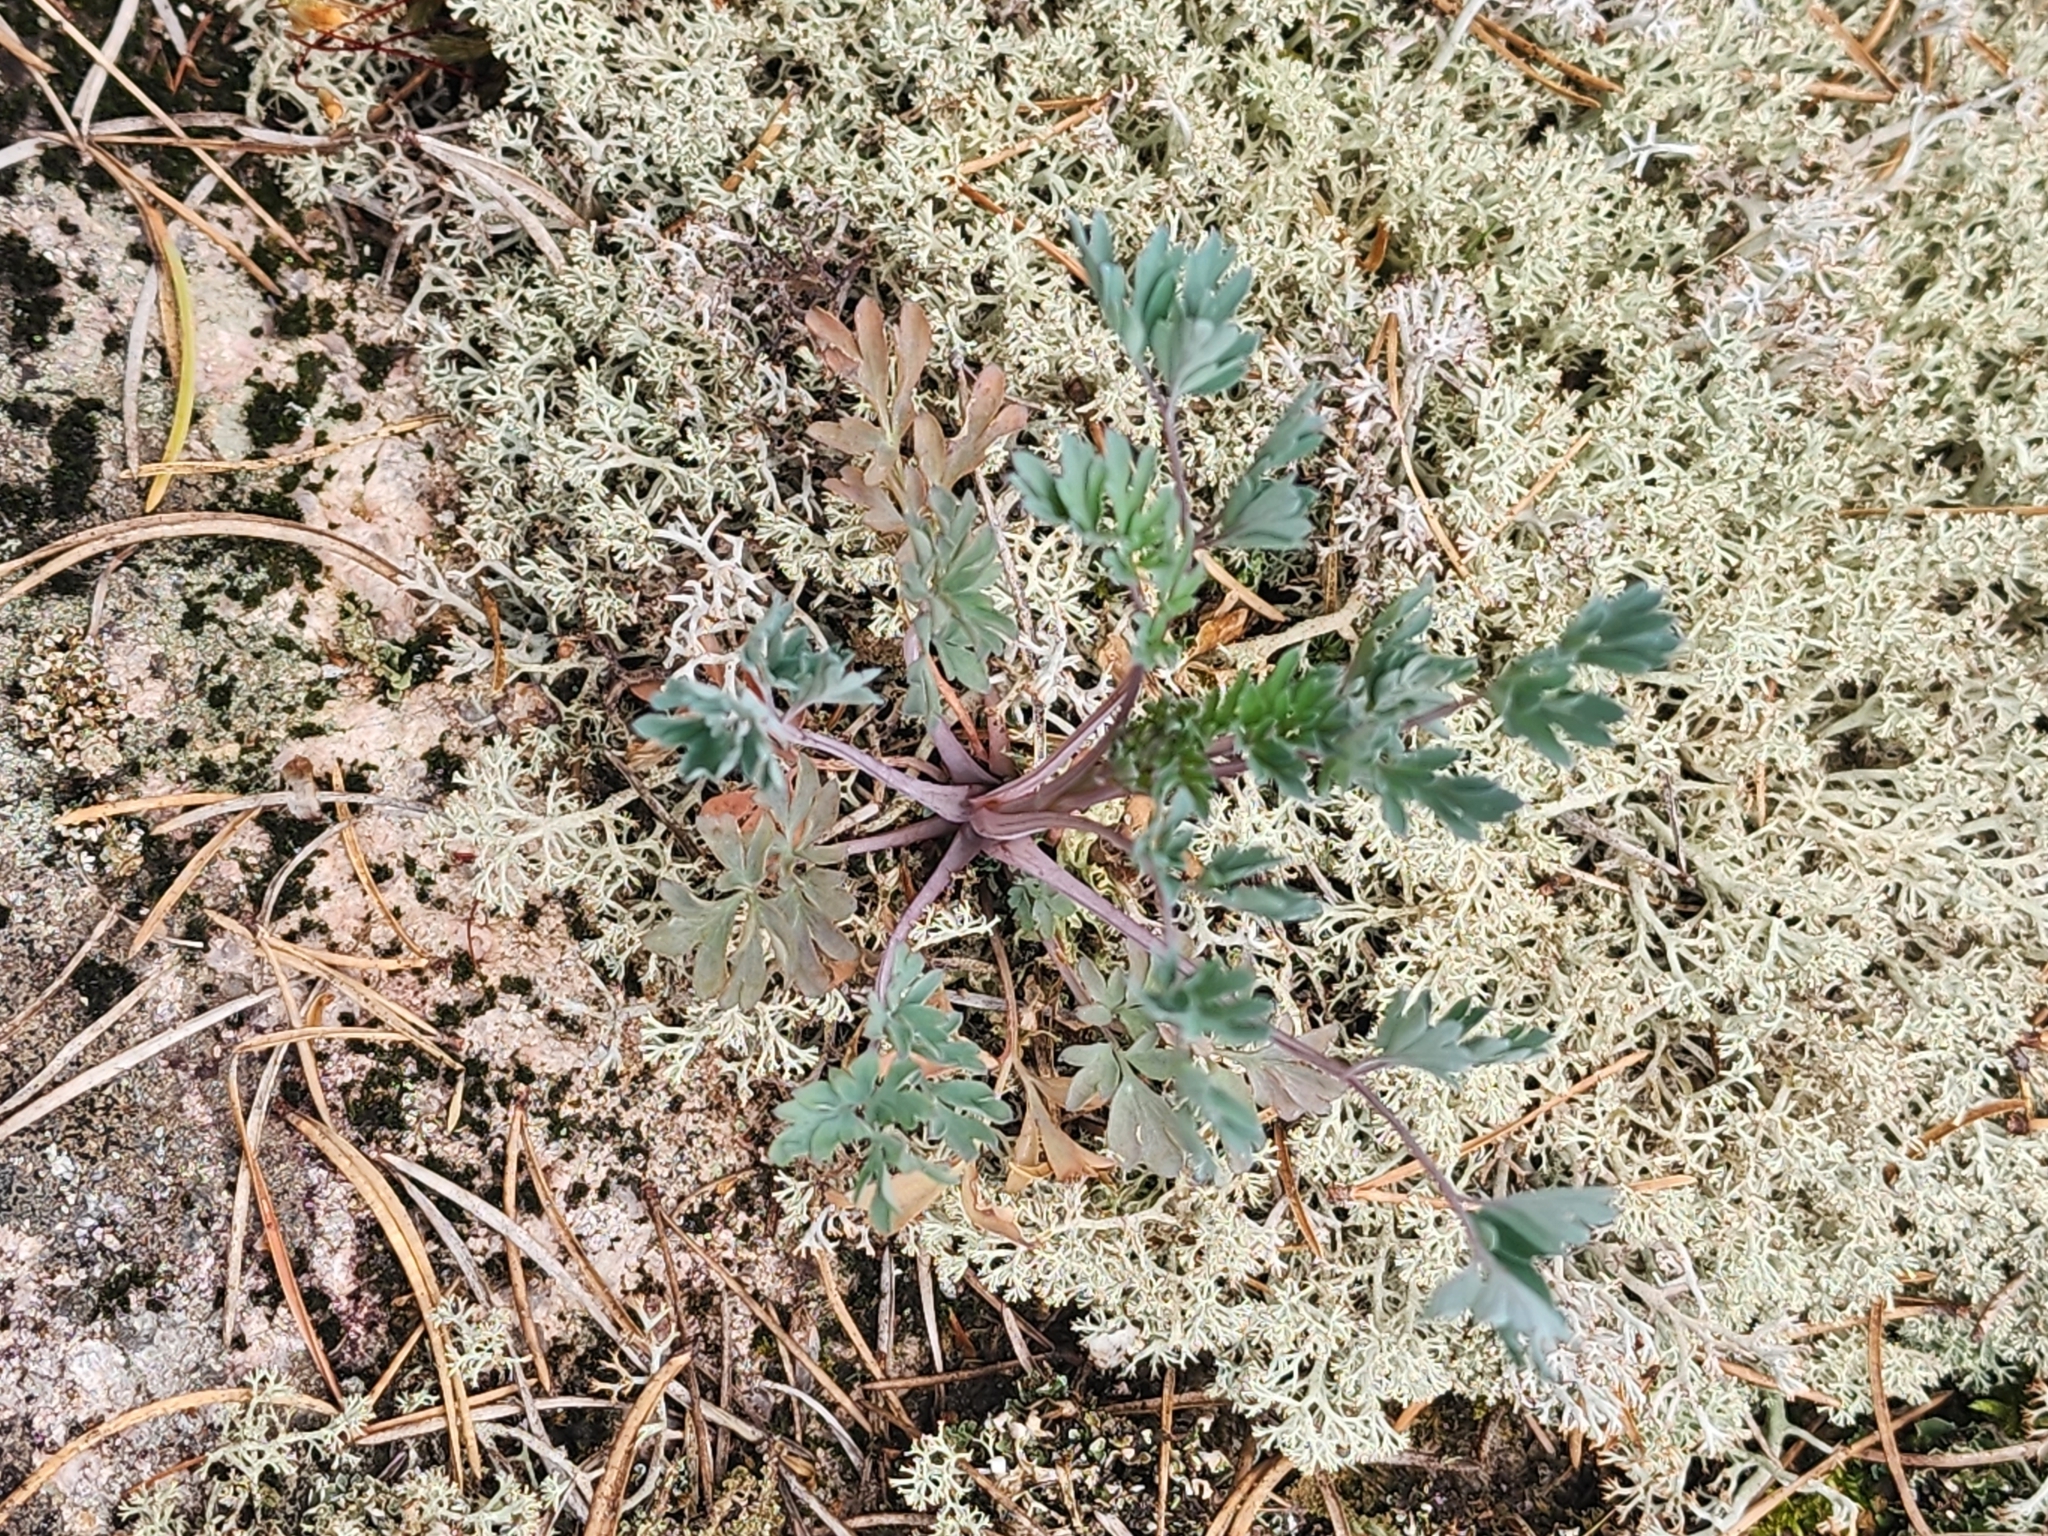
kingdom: Plantae
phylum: Tracheophyta
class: Magnoliopsida
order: Ranunculales
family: Papaveraceae
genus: Capnoides
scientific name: Capnoides sempervirens
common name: Rock harlequin
